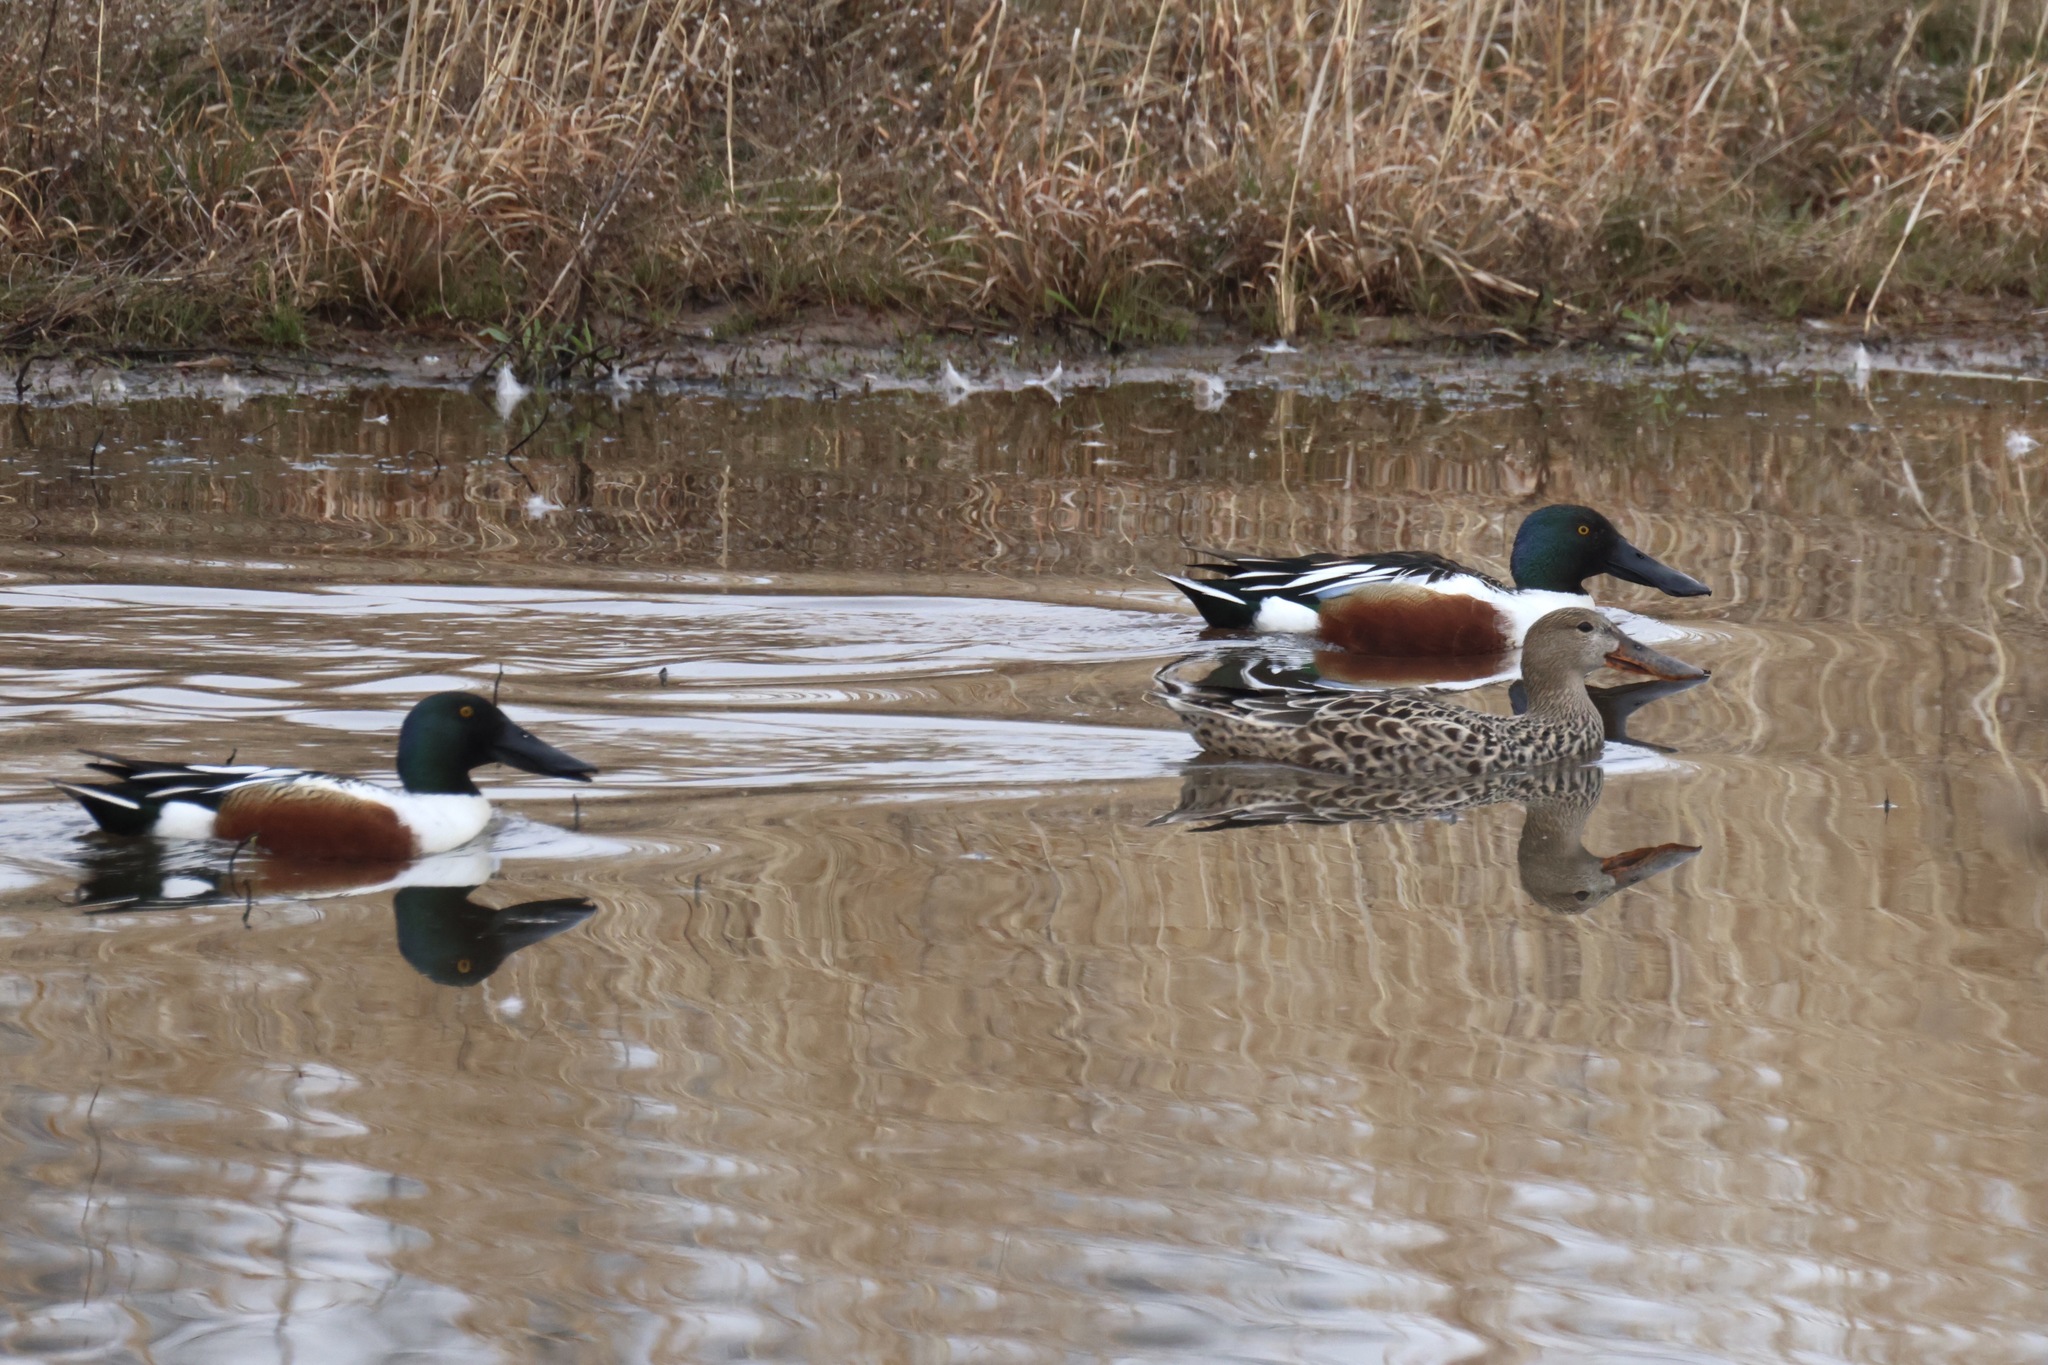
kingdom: Animalia
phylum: Chordata
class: Aves
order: Anseriformes
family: Anatidae
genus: Spatula
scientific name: Spatula clypeata
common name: Northern shoveler
